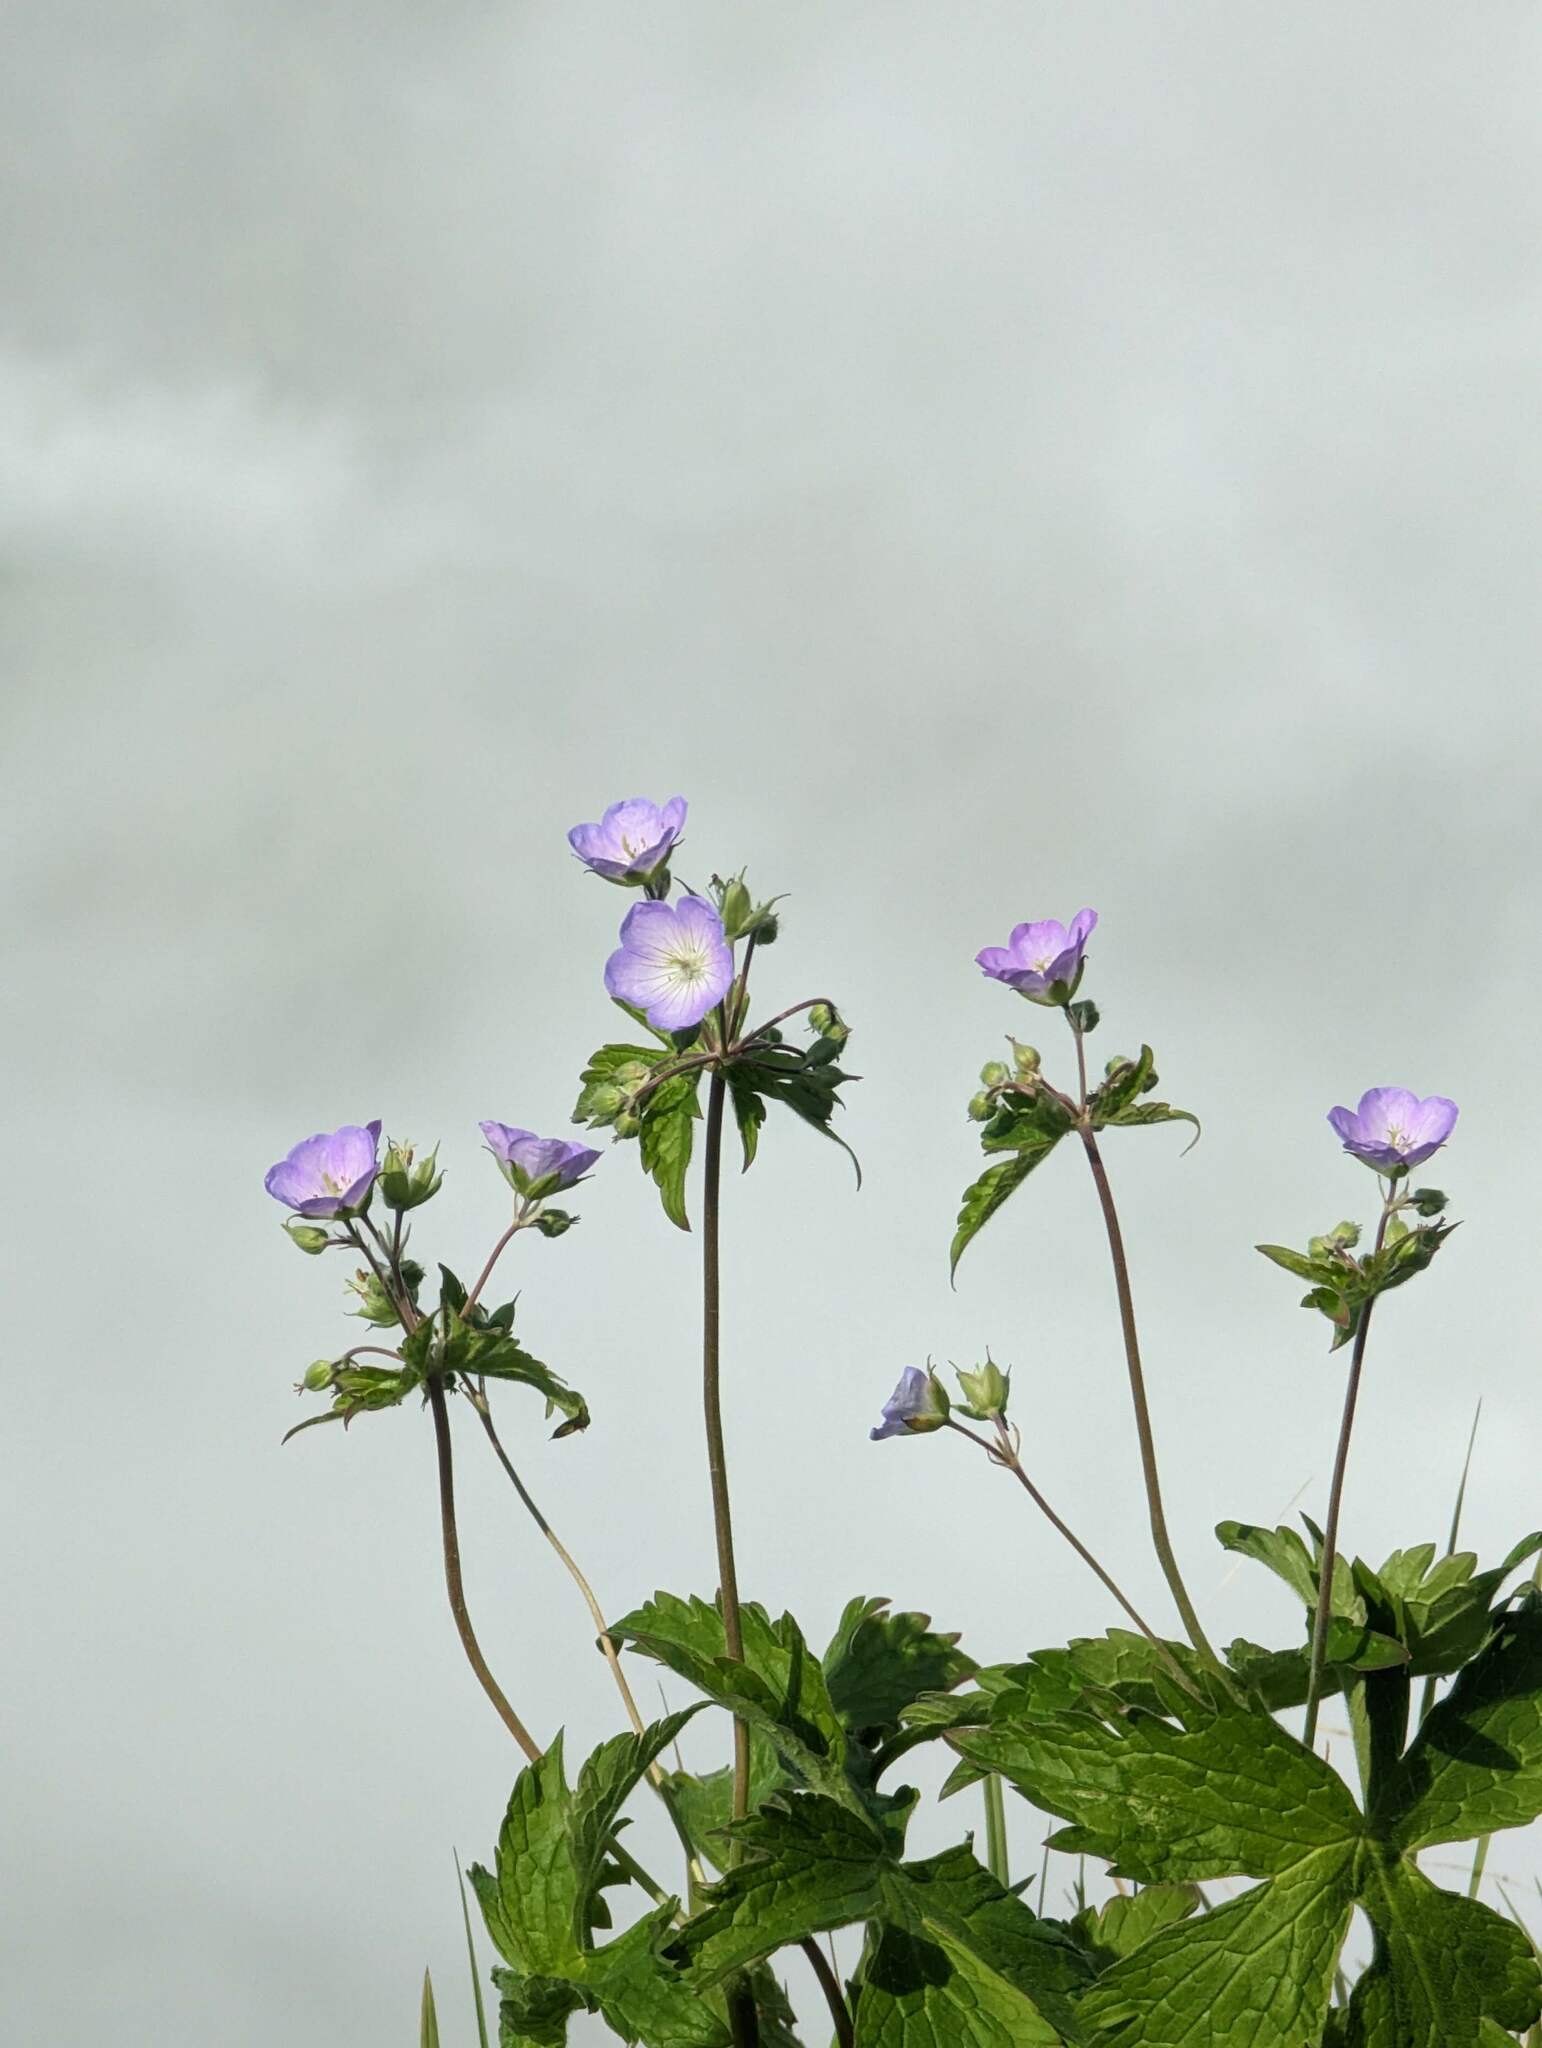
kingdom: Plantae
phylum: Tracheophyta
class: Magnoliopsida
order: Geraniales
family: Geraniaceae
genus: Geranium
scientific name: Geranium maculatum
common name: Spotted geranium
